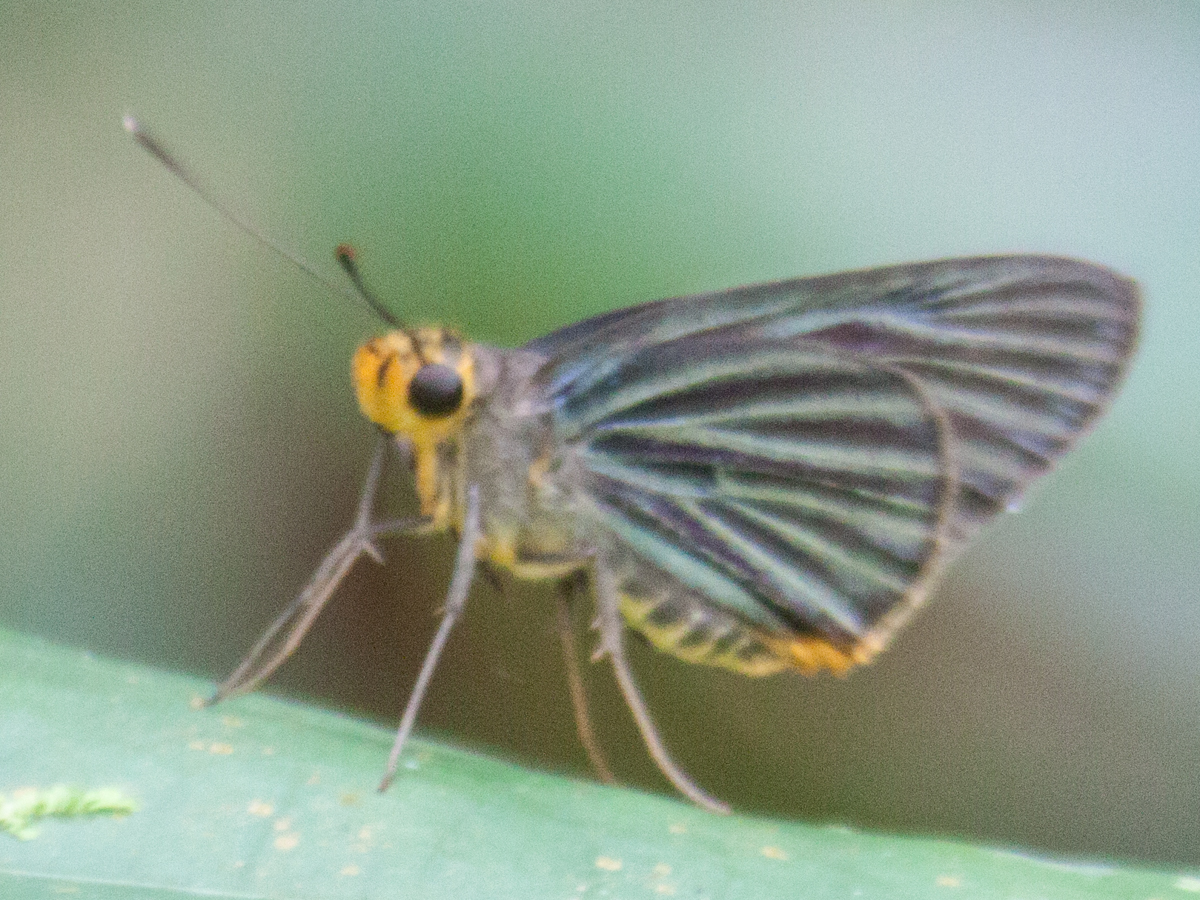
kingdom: Animalia
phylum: Arthropoda
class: Insecta
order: Lepidoptera
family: Hesperiidae
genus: Pirdana
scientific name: Pirdana hyela
